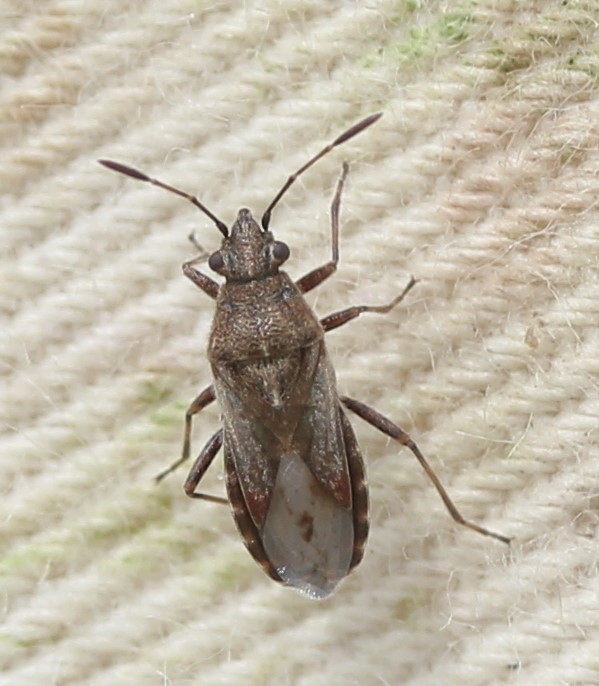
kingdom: Animalia
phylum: Arthropoda
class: Insecta
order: Hemiptera
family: Lygaeidae
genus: Neortholomus
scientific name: Neortholomus scolopax
